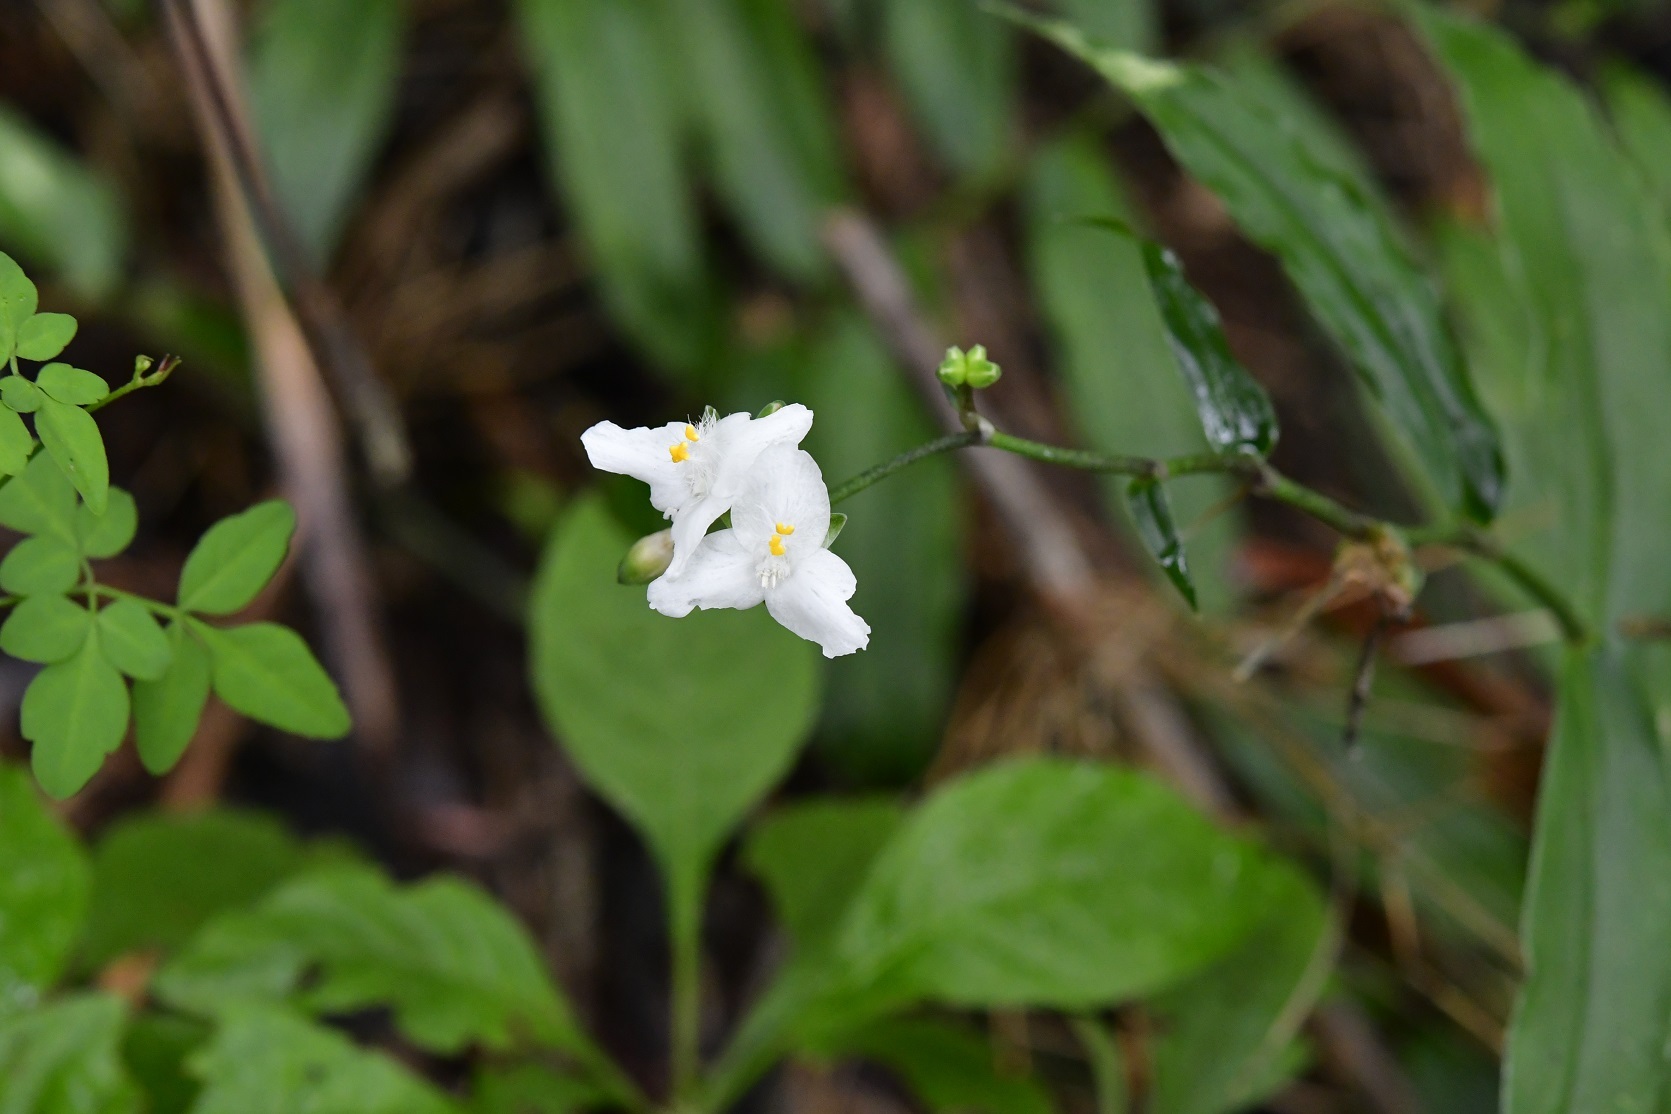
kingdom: Plantae
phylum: Tracheophyta
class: Liliopsida
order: Commelinales
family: Commelinaceae
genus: Callisia
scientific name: Callisia grandiflora
